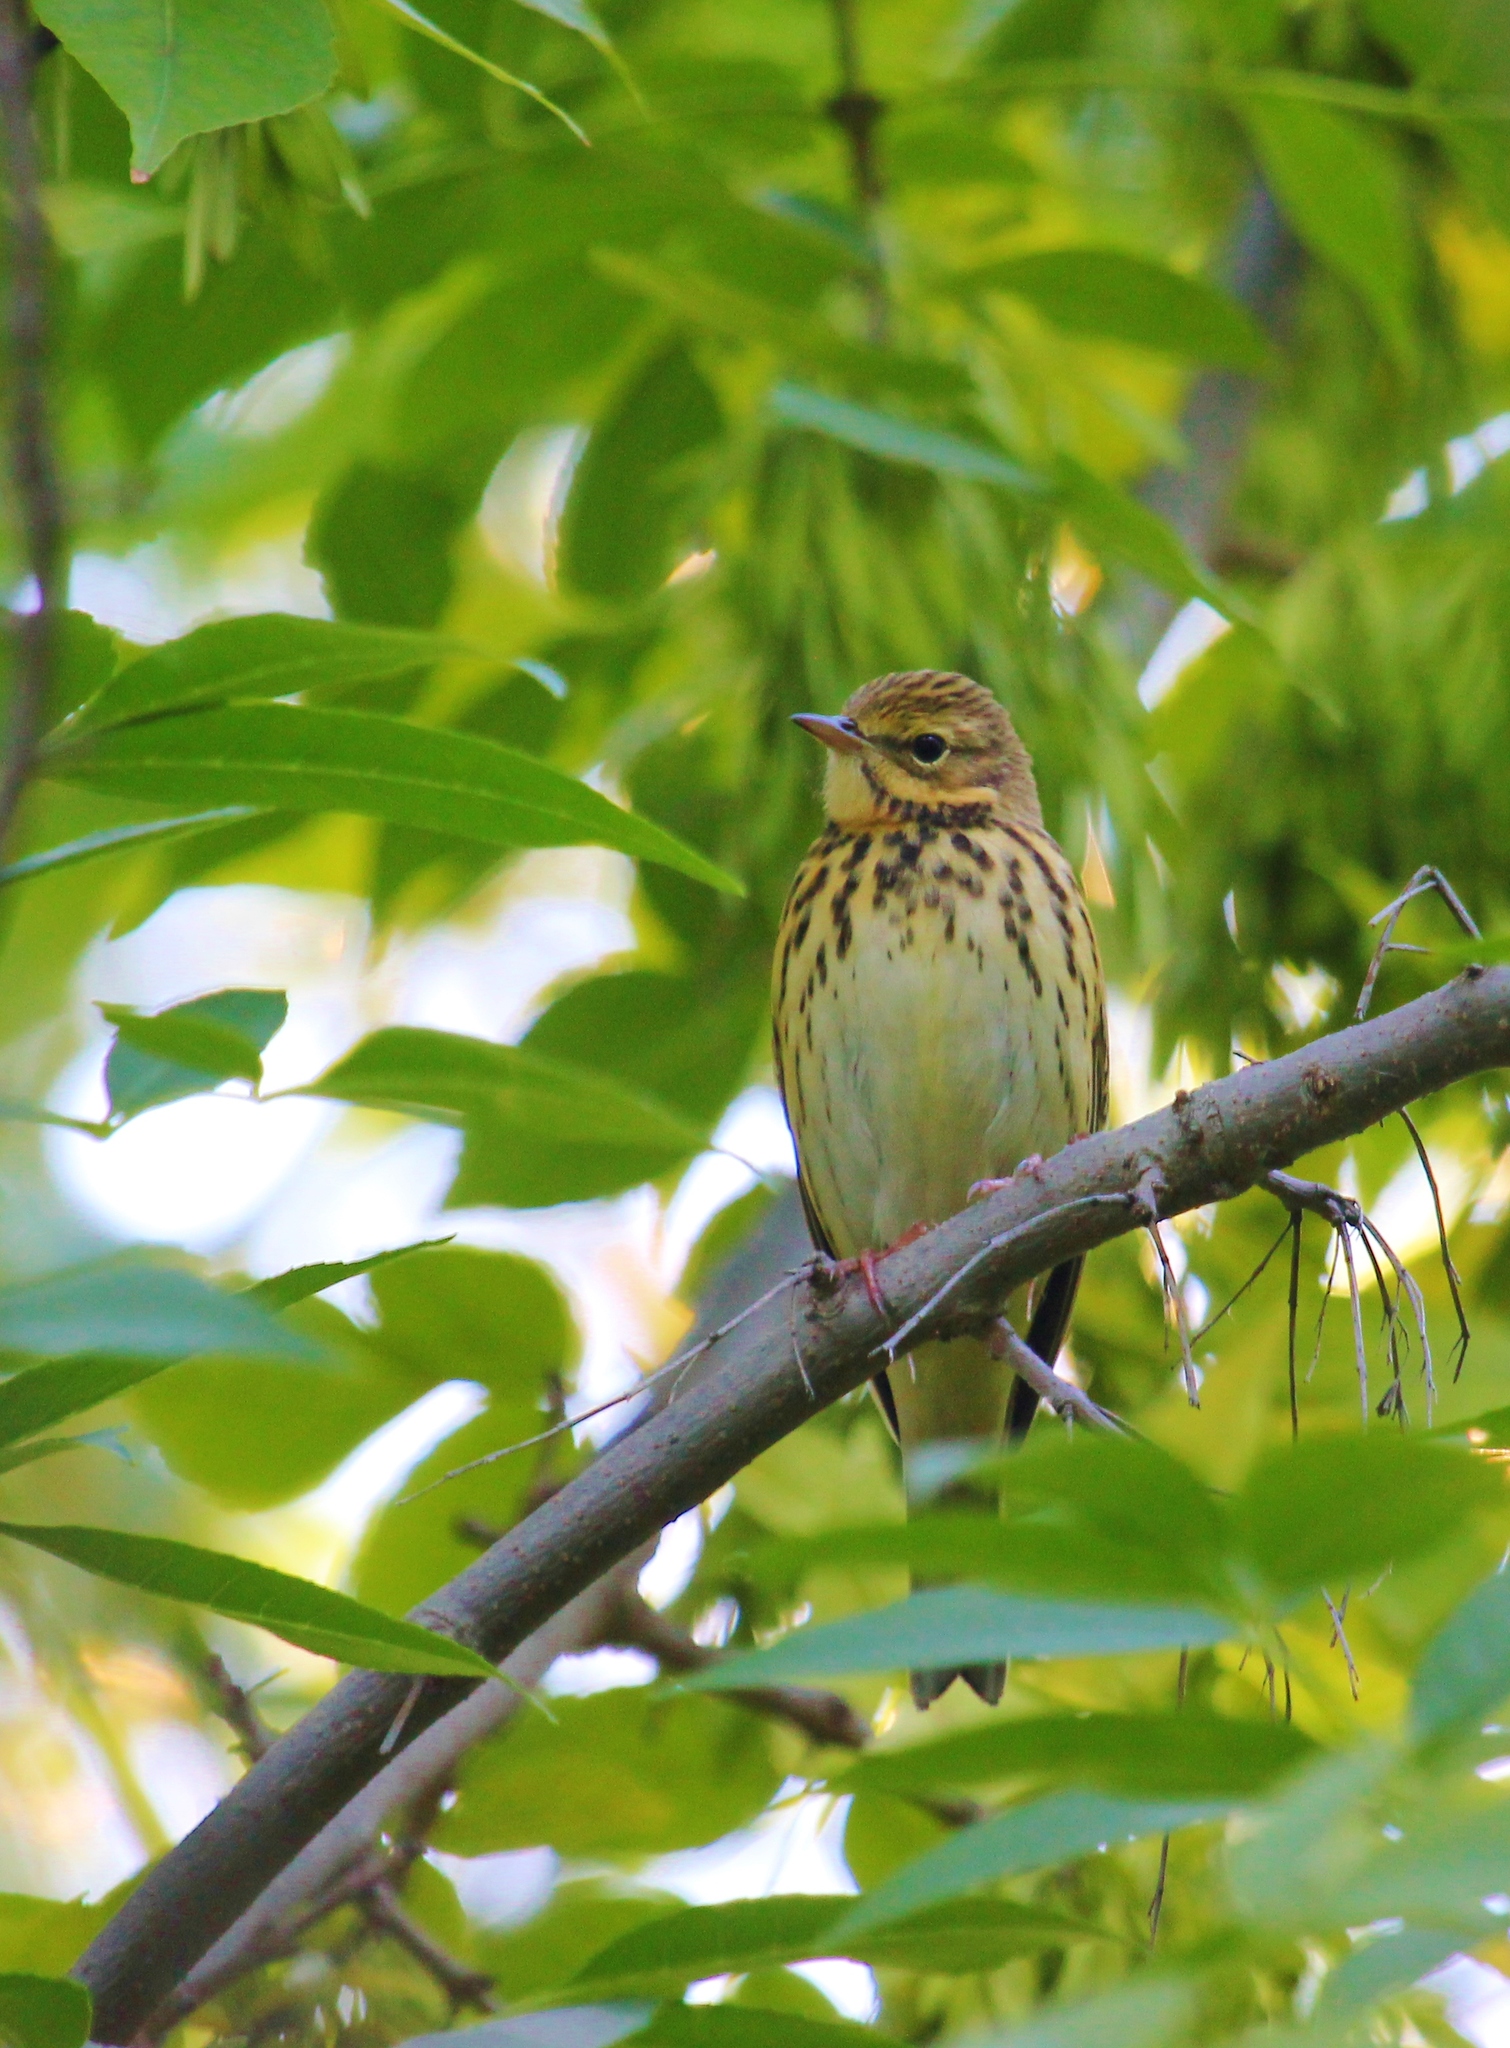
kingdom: Animalia
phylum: Chordata
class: Aves
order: Passeriformes
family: Motacillidae
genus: Anthus
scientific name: Anthus trivialis
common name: Tree pipit
